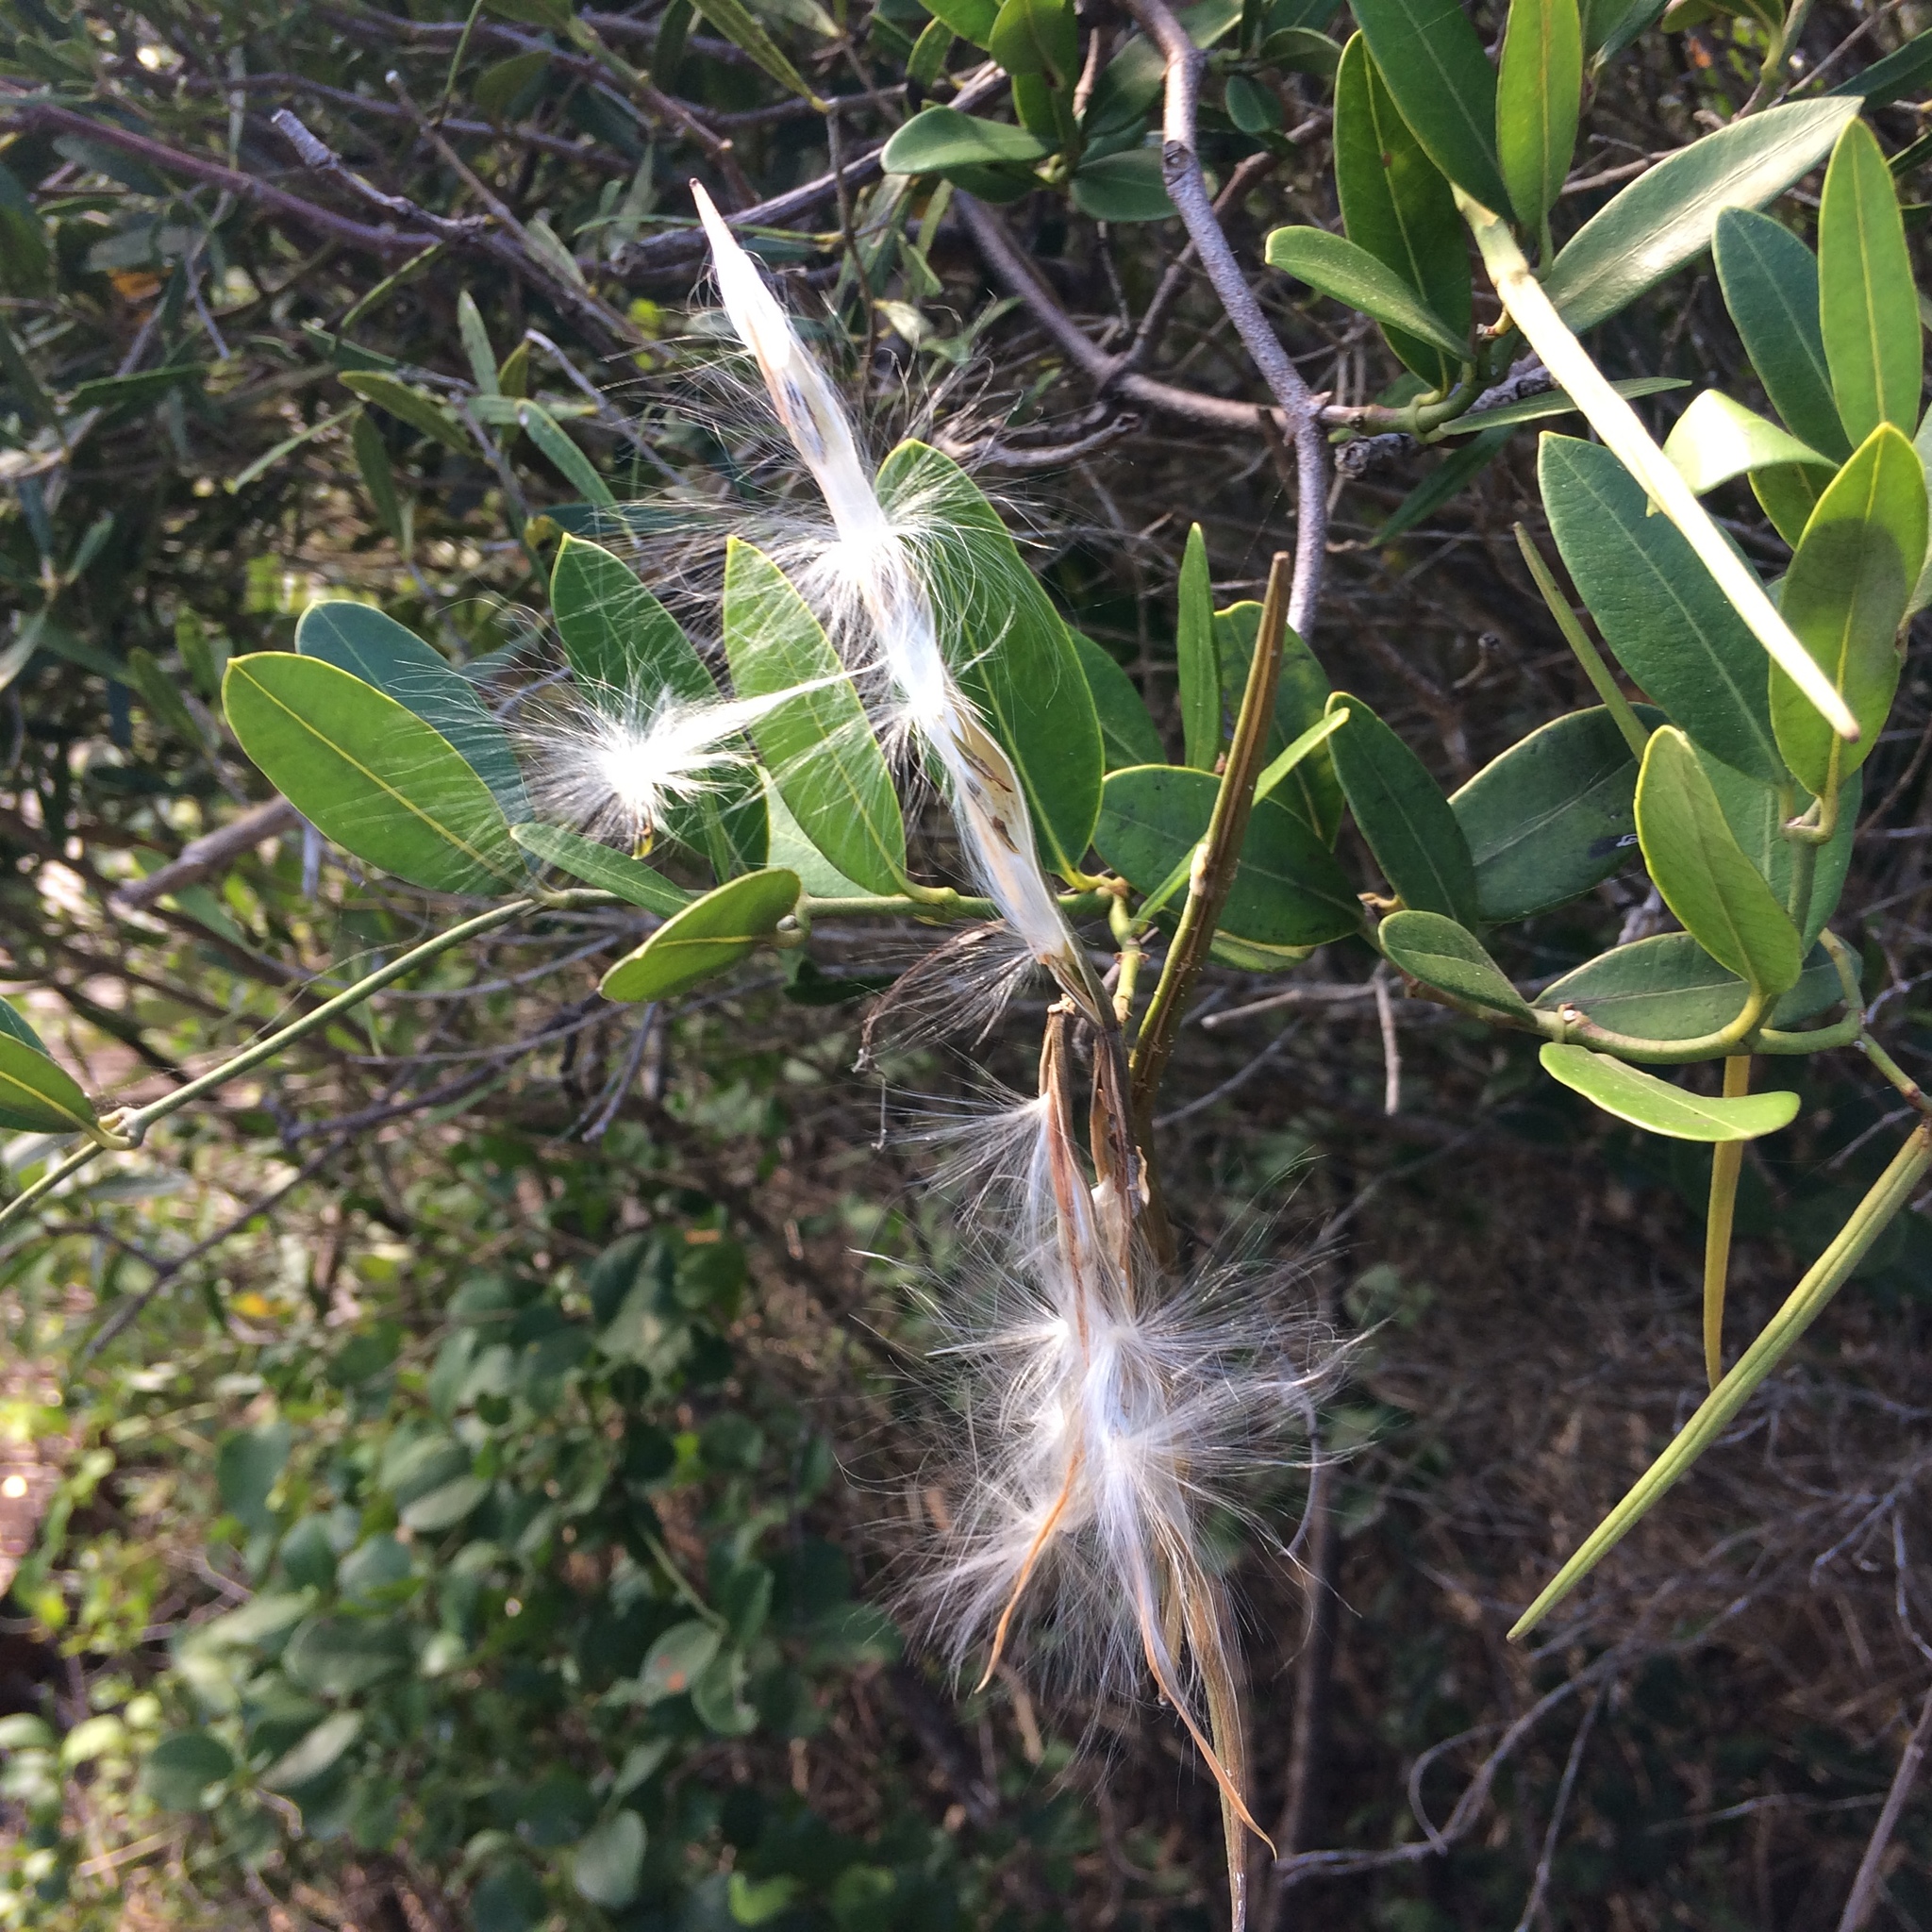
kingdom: Plantae
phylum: Tracheophyta
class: Magnoliopsida
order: Gentianales
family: Apocynaceae
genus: Secamone
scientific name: Secamone alpini
